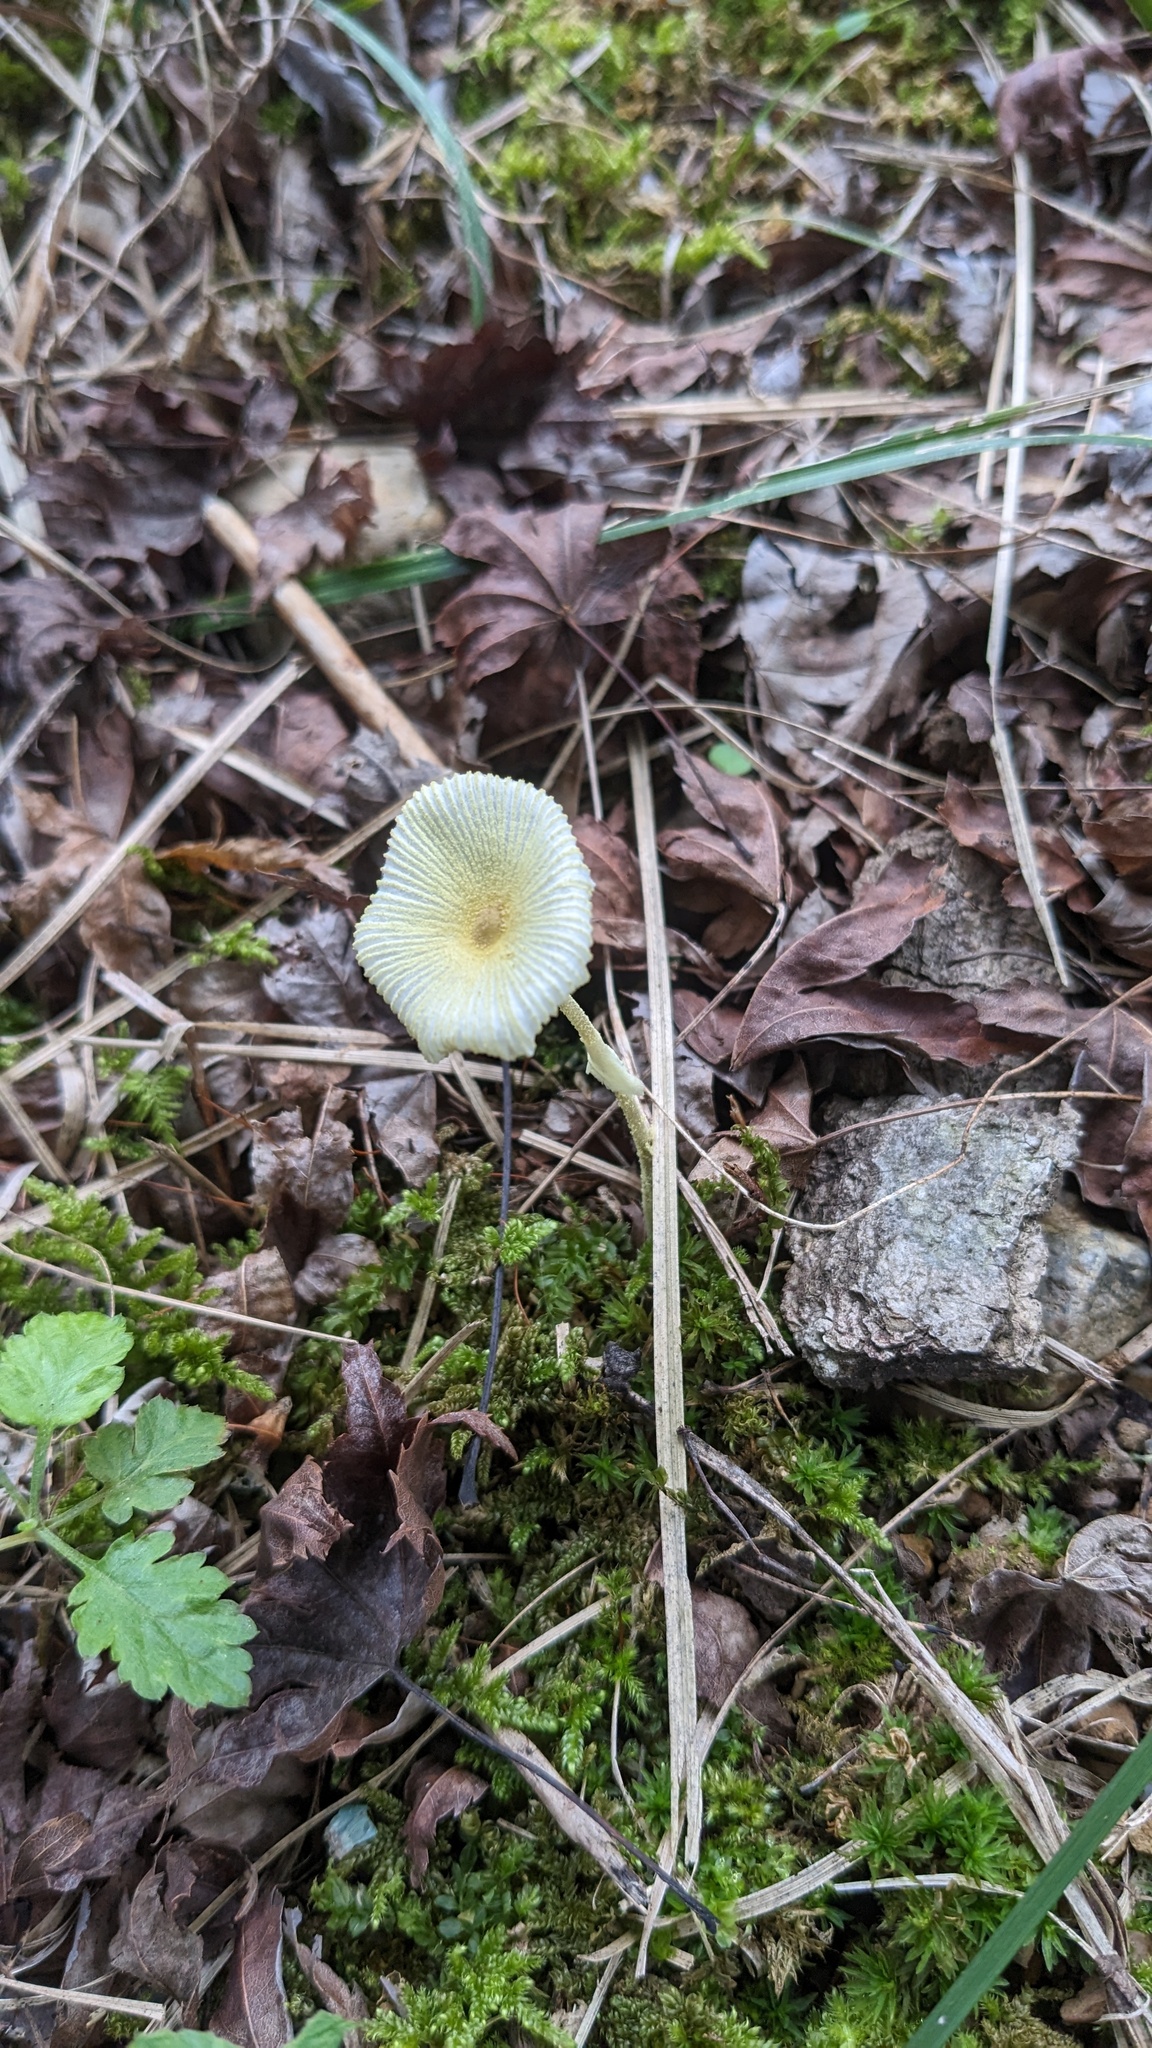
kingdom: Fungi
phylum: Basidiomycota
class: Agaricomycetes
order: Agaricales
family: Agaricaceae
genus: Leucocoprinus
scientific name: Leucocoprinus fragilissimus
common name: Fragile dapperling
